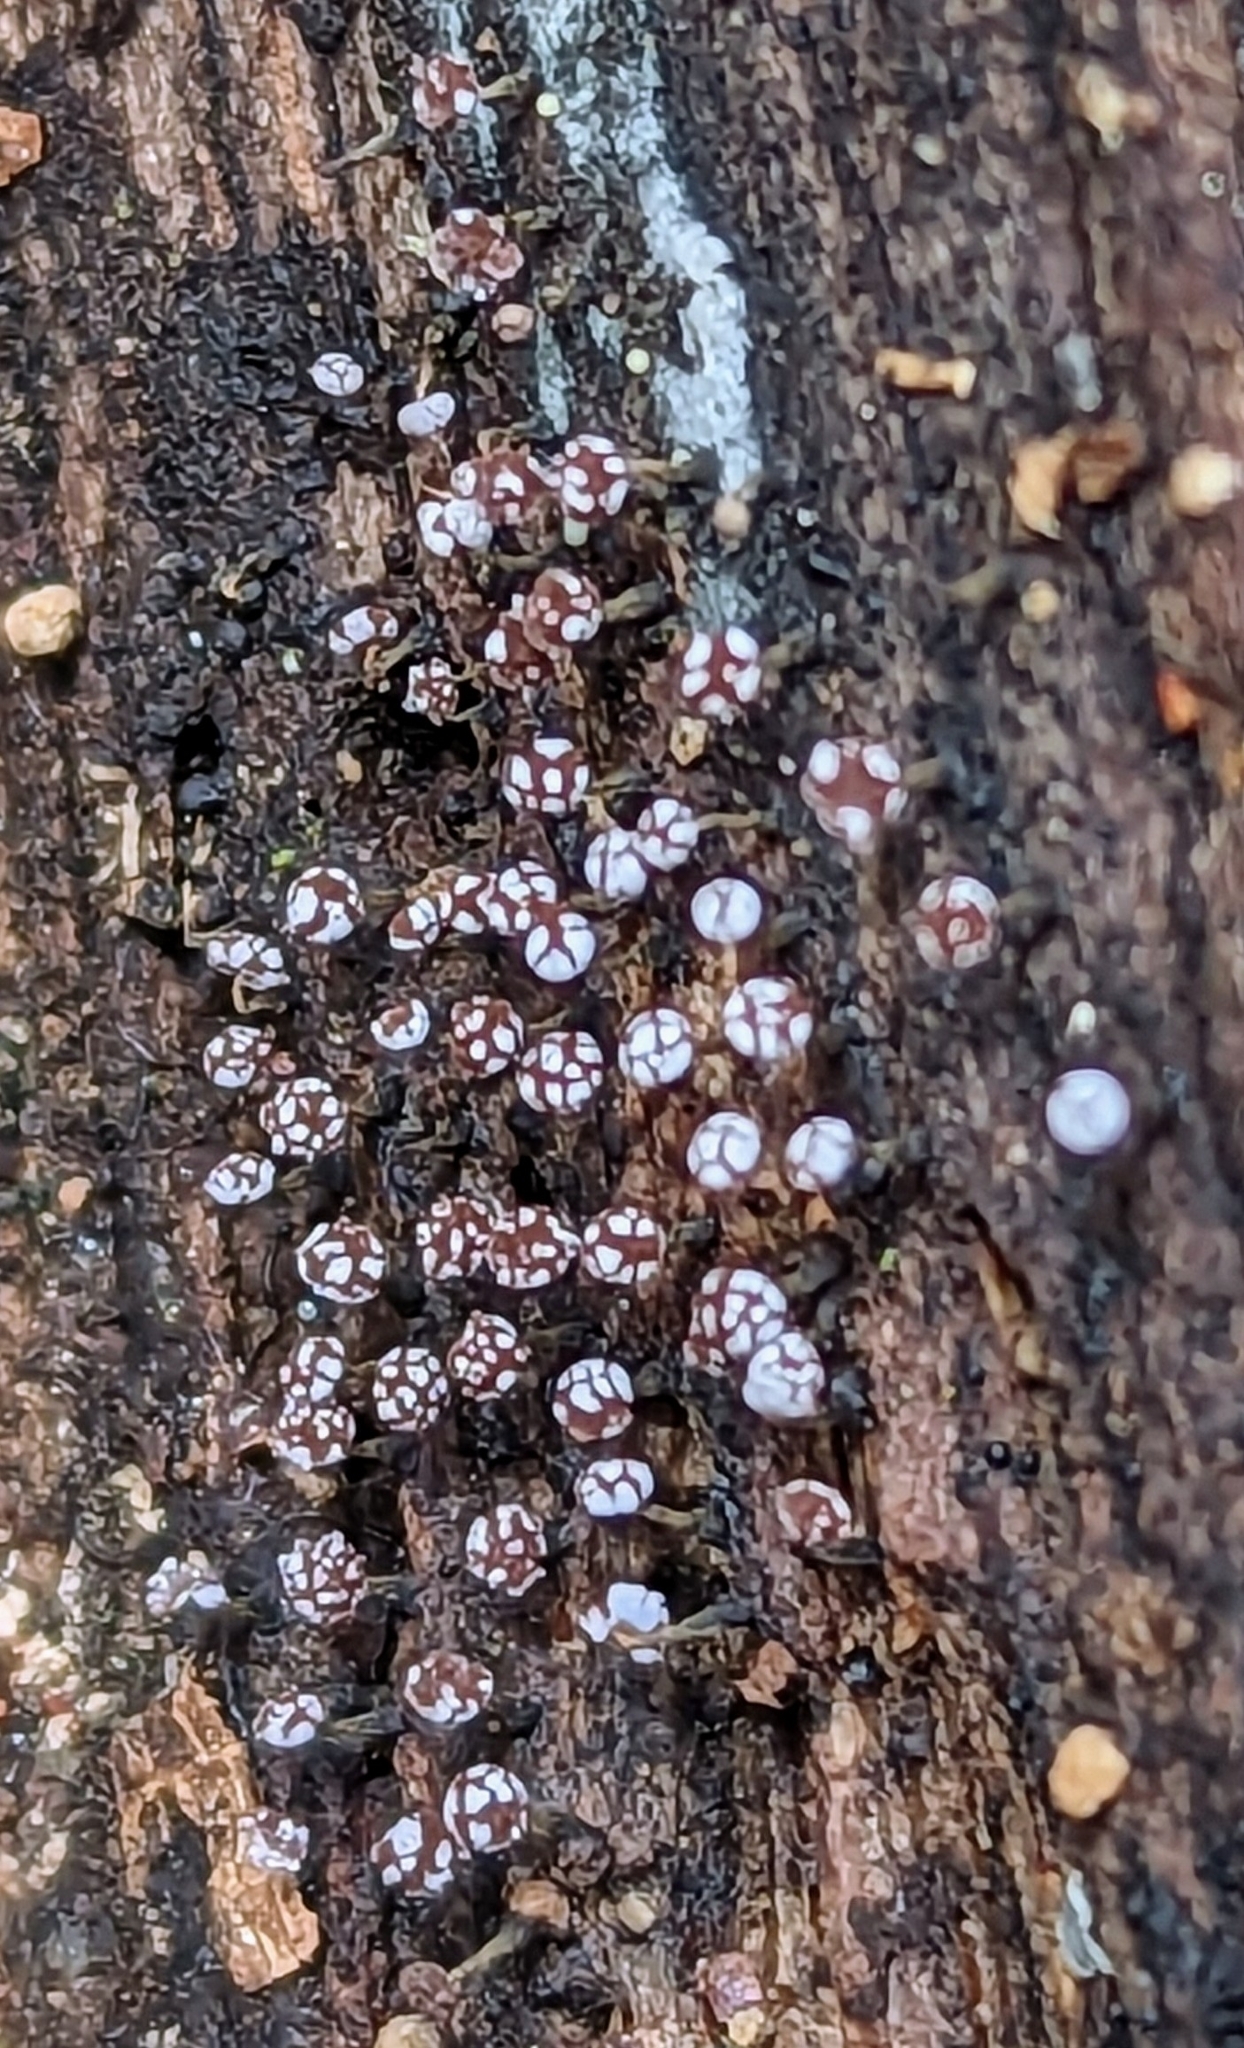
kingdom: Protozoa
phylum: Mycetozoa
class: Myxomycetes
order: Physarales
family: Physaraceae
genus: Physarum
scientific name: Physarum album
